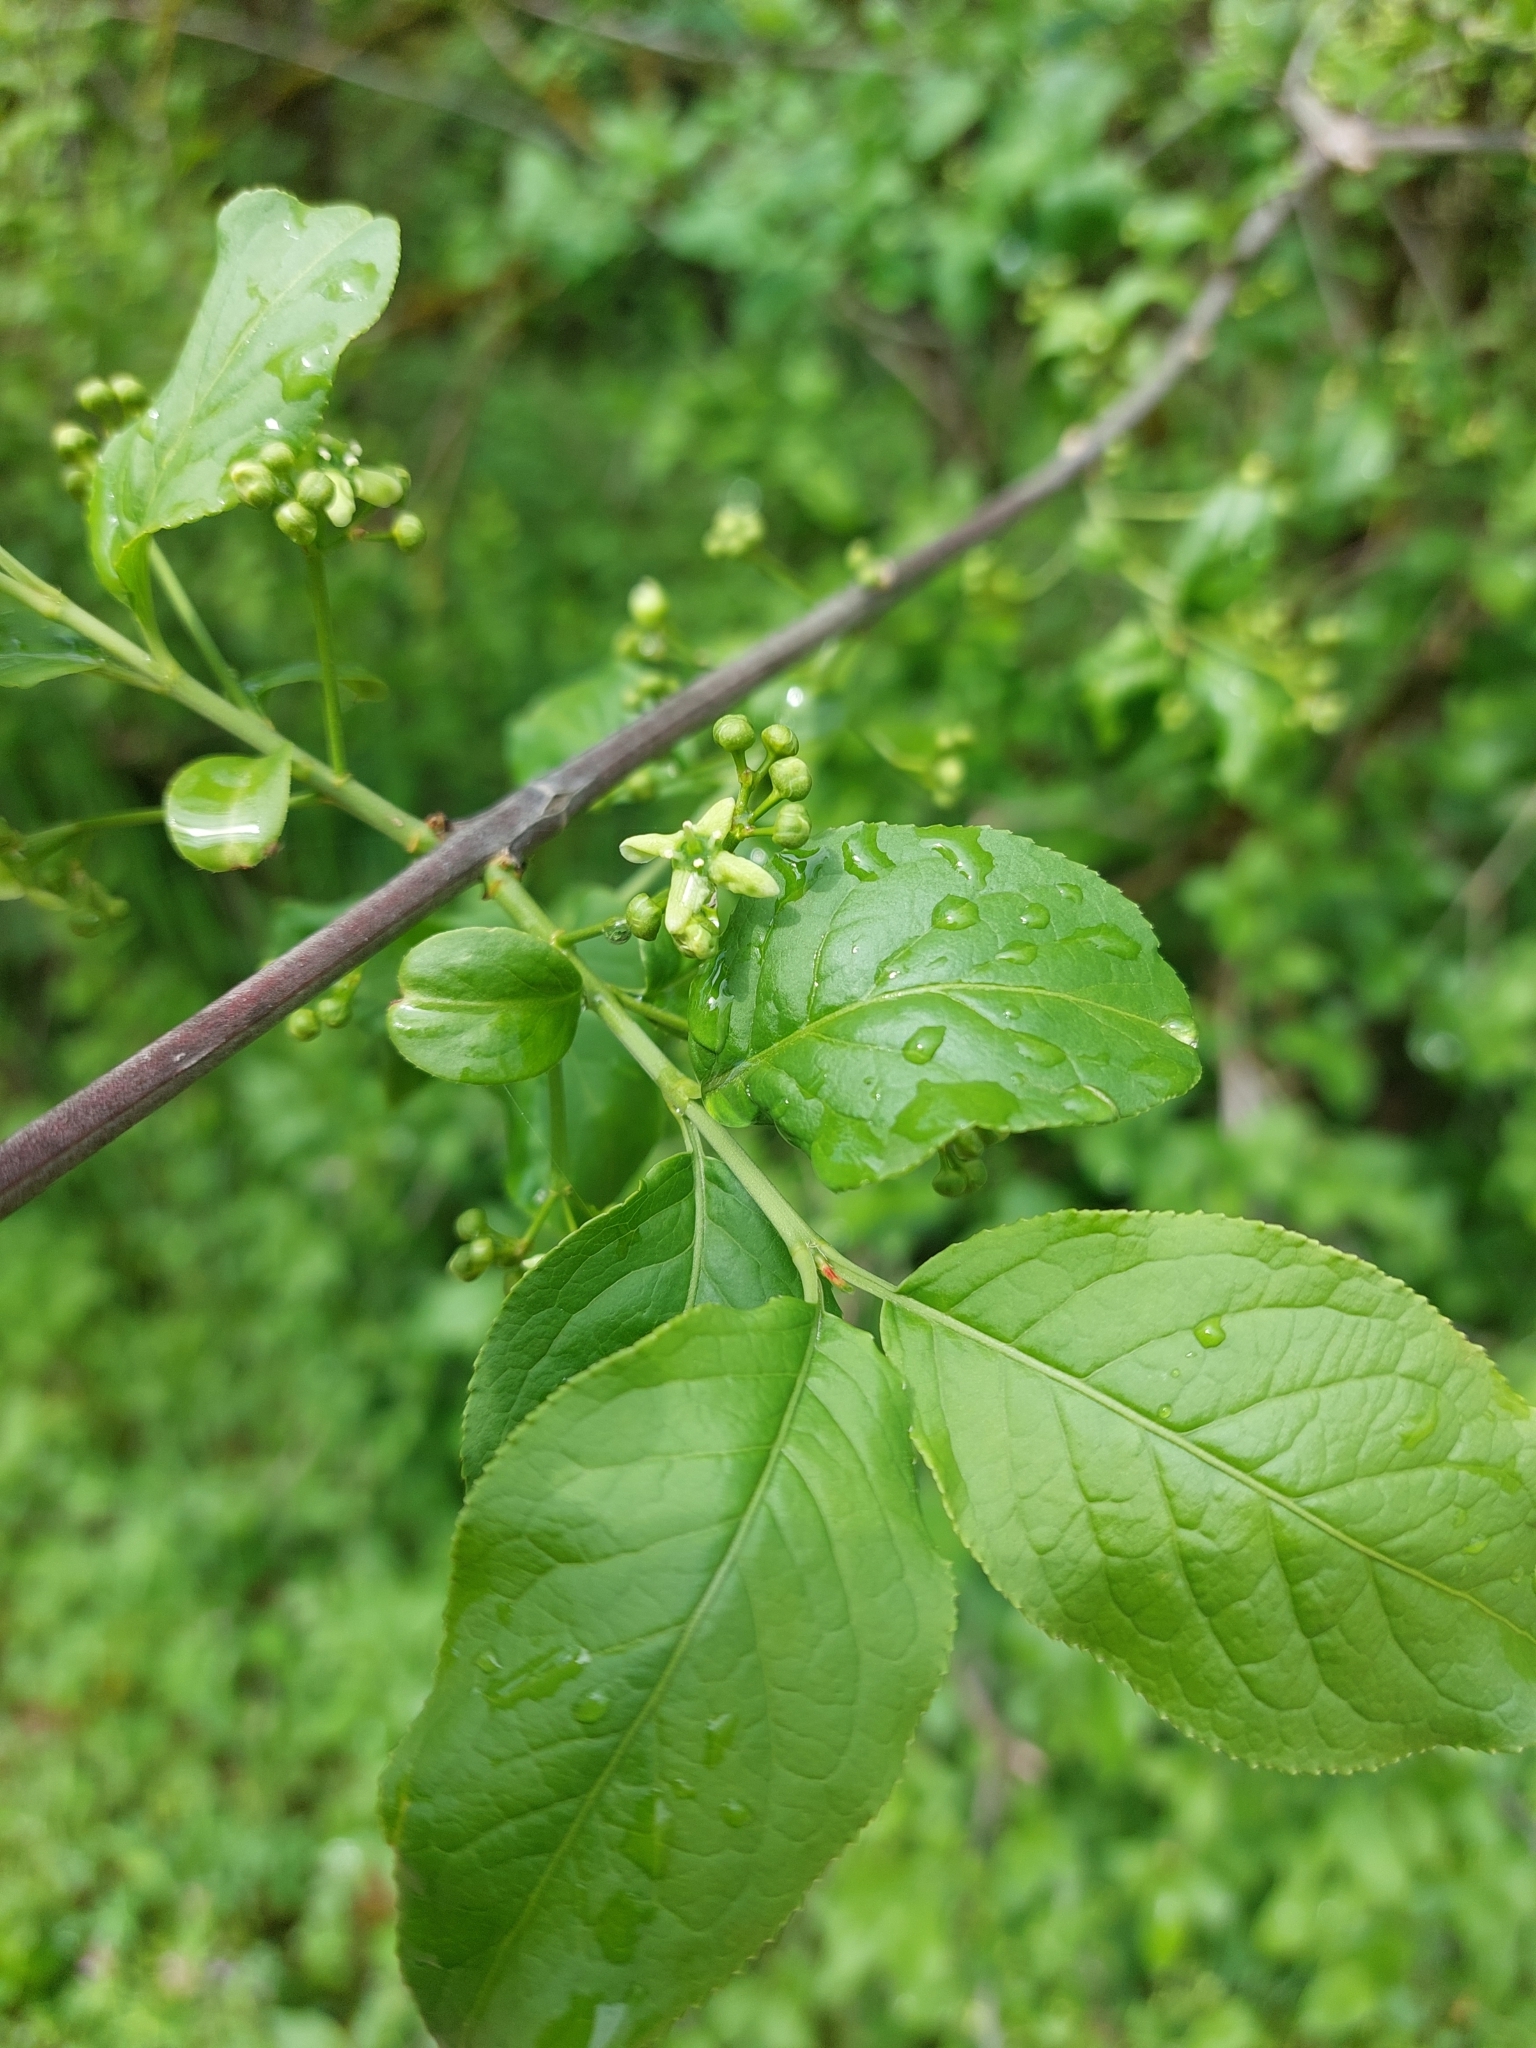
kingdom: Plantae
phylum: Tracheophyta
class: Magnoliopsida
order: Celastrales
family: Celastraceae
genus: Euonymus
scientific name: Euonymus europaeus
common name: Spindle
